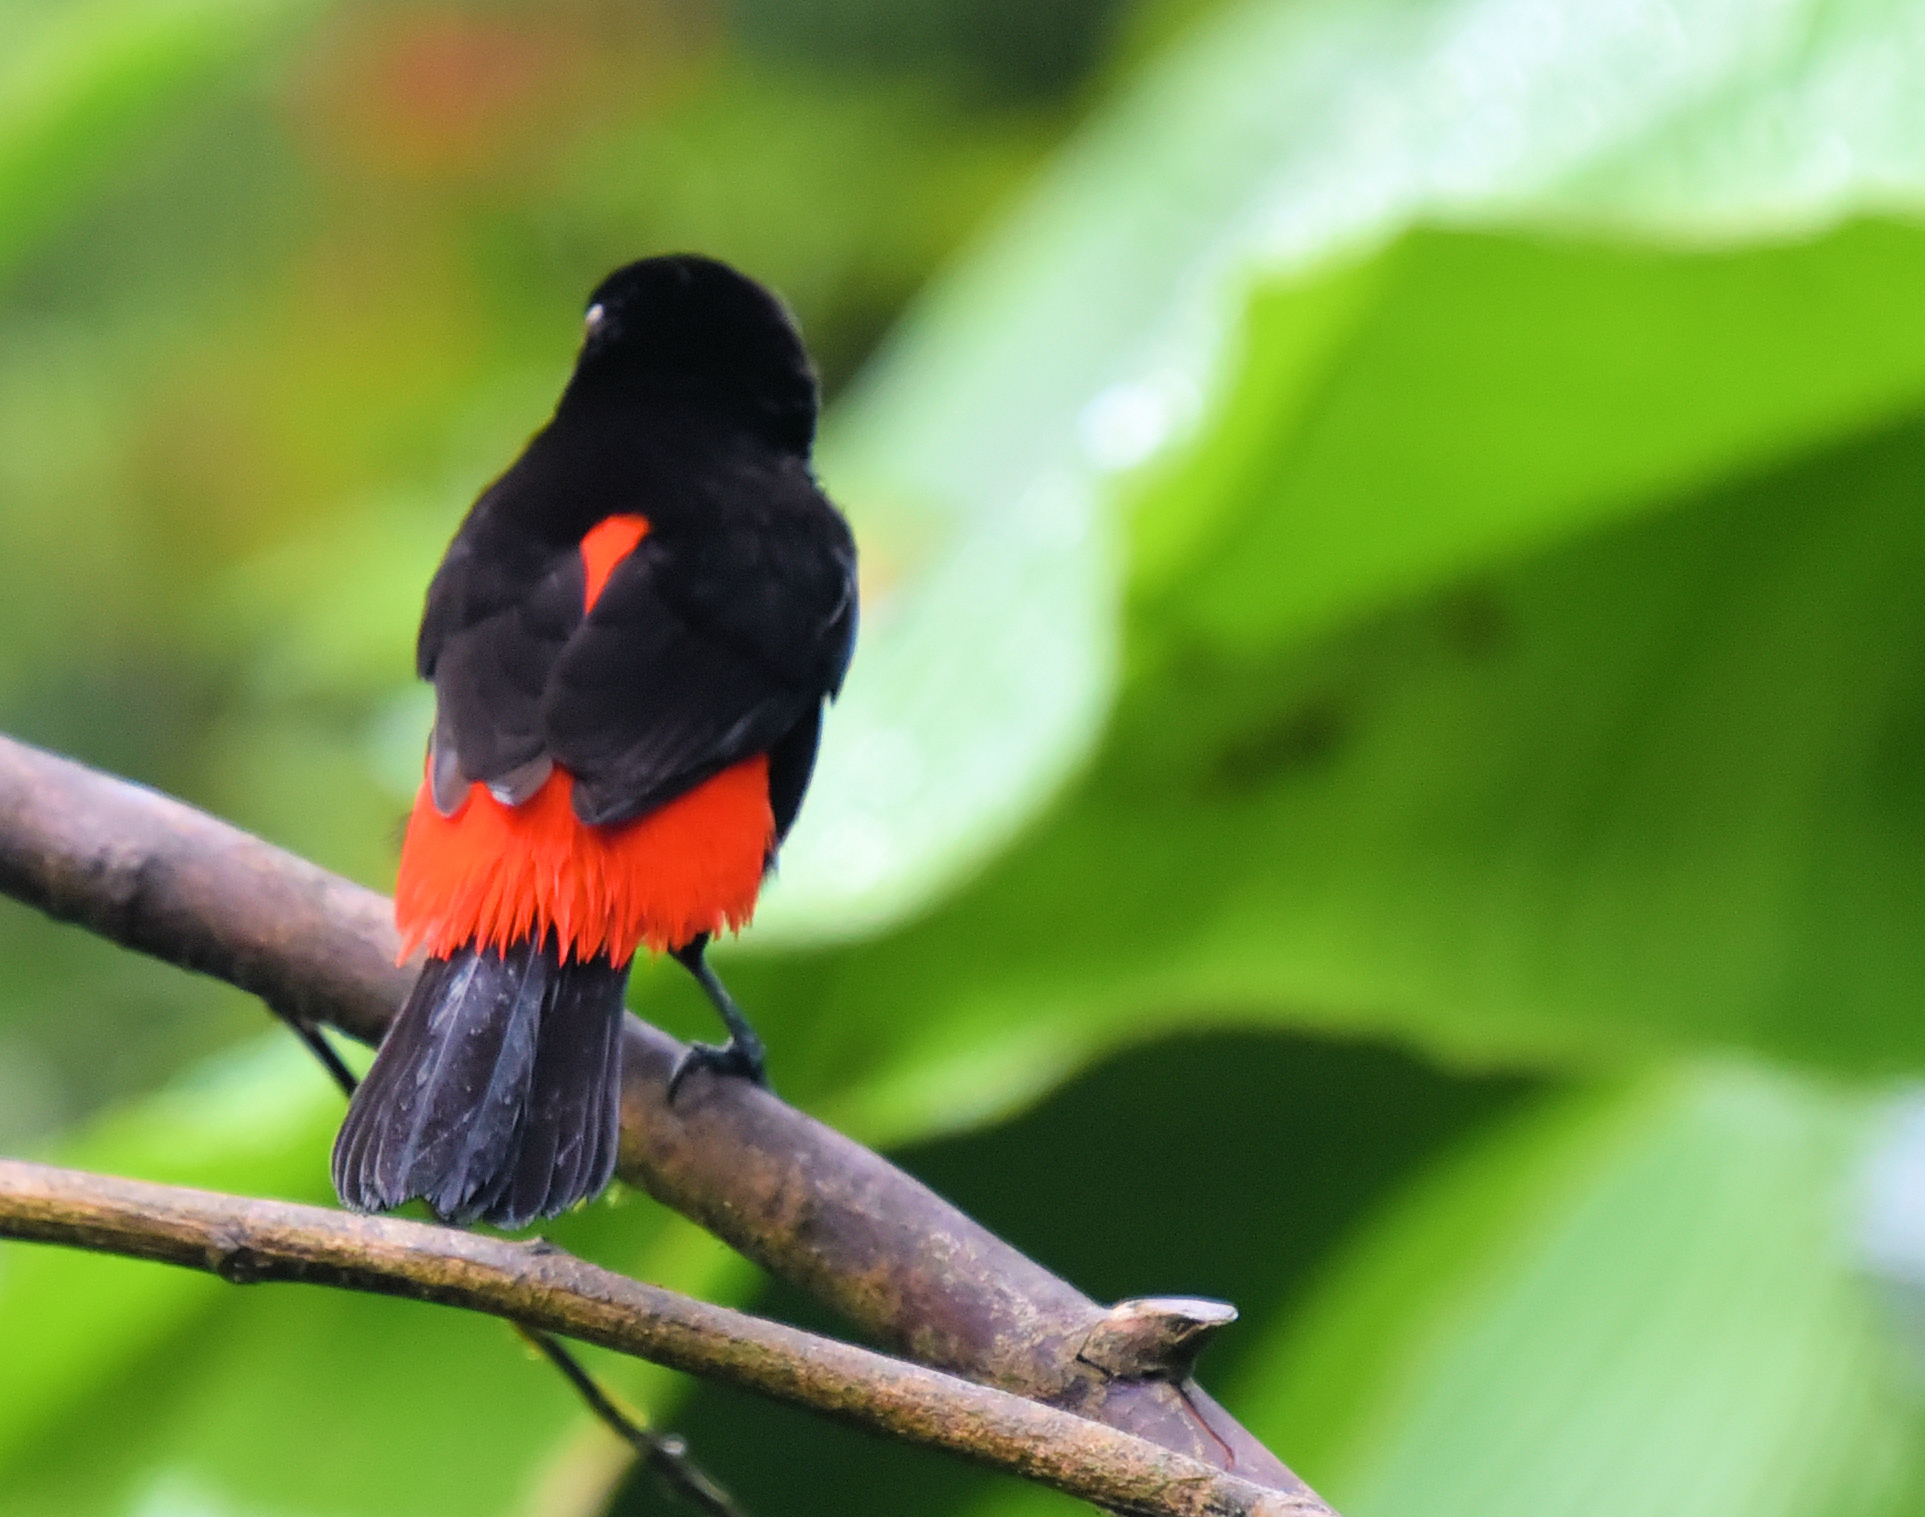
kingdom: Animalia
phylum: Chordata
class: Aves
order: Passeriformes
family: Thraupidae
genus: Ramphocelus
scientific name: Ramphocelus passerinii
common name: Passerini's tanager
